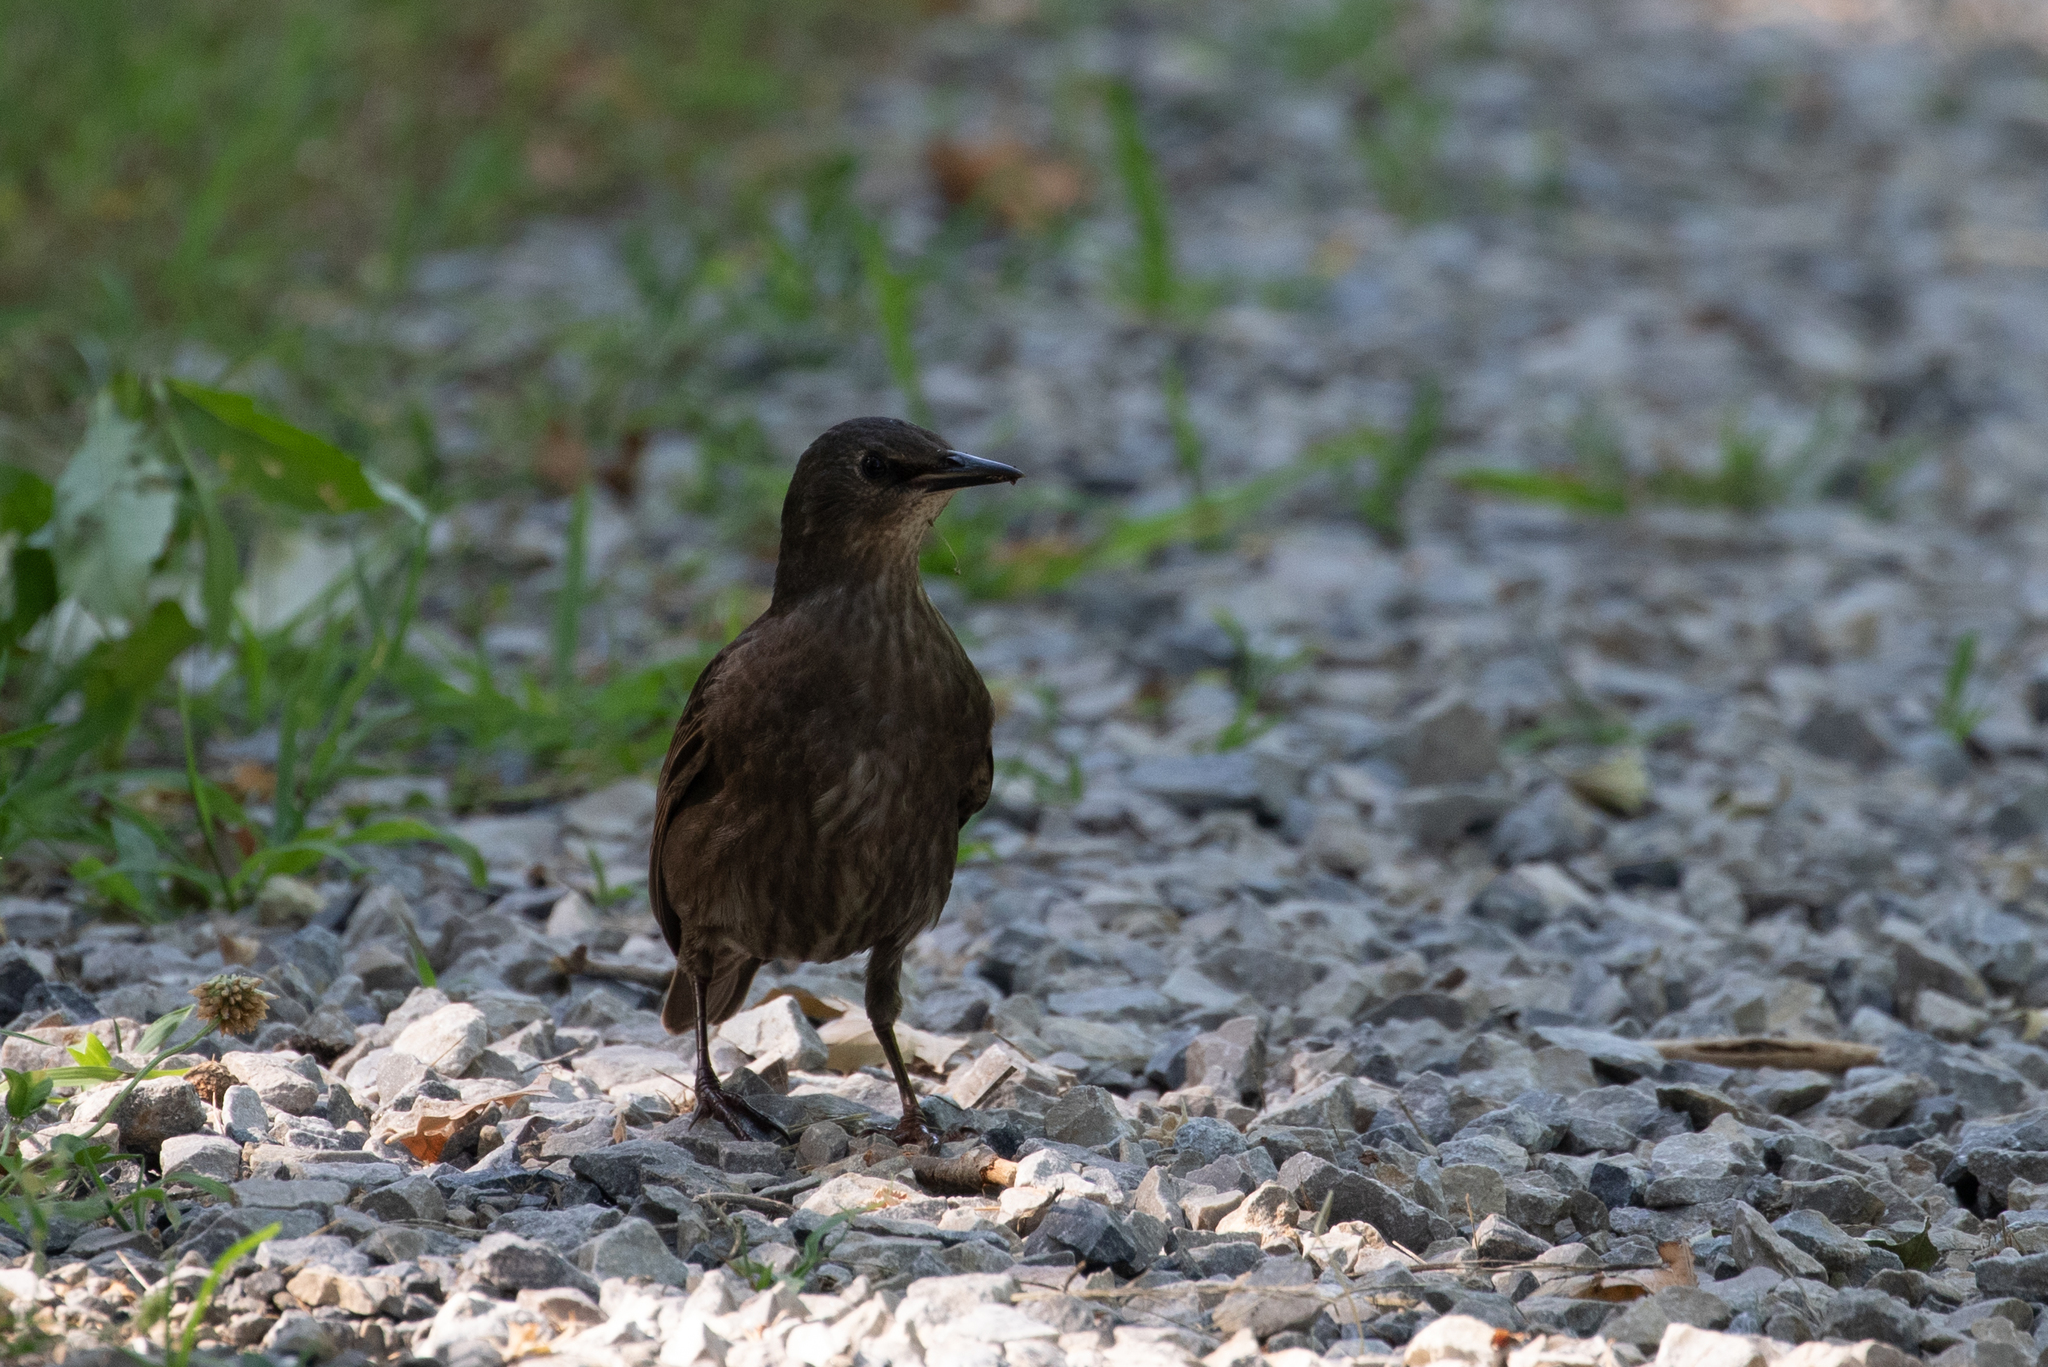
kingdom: Animalia
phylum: Chordata
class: Aves
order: Passeriformes
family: Sturnidae
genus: Sturnus
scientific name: Sturnus vulgaris
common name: Common starling
